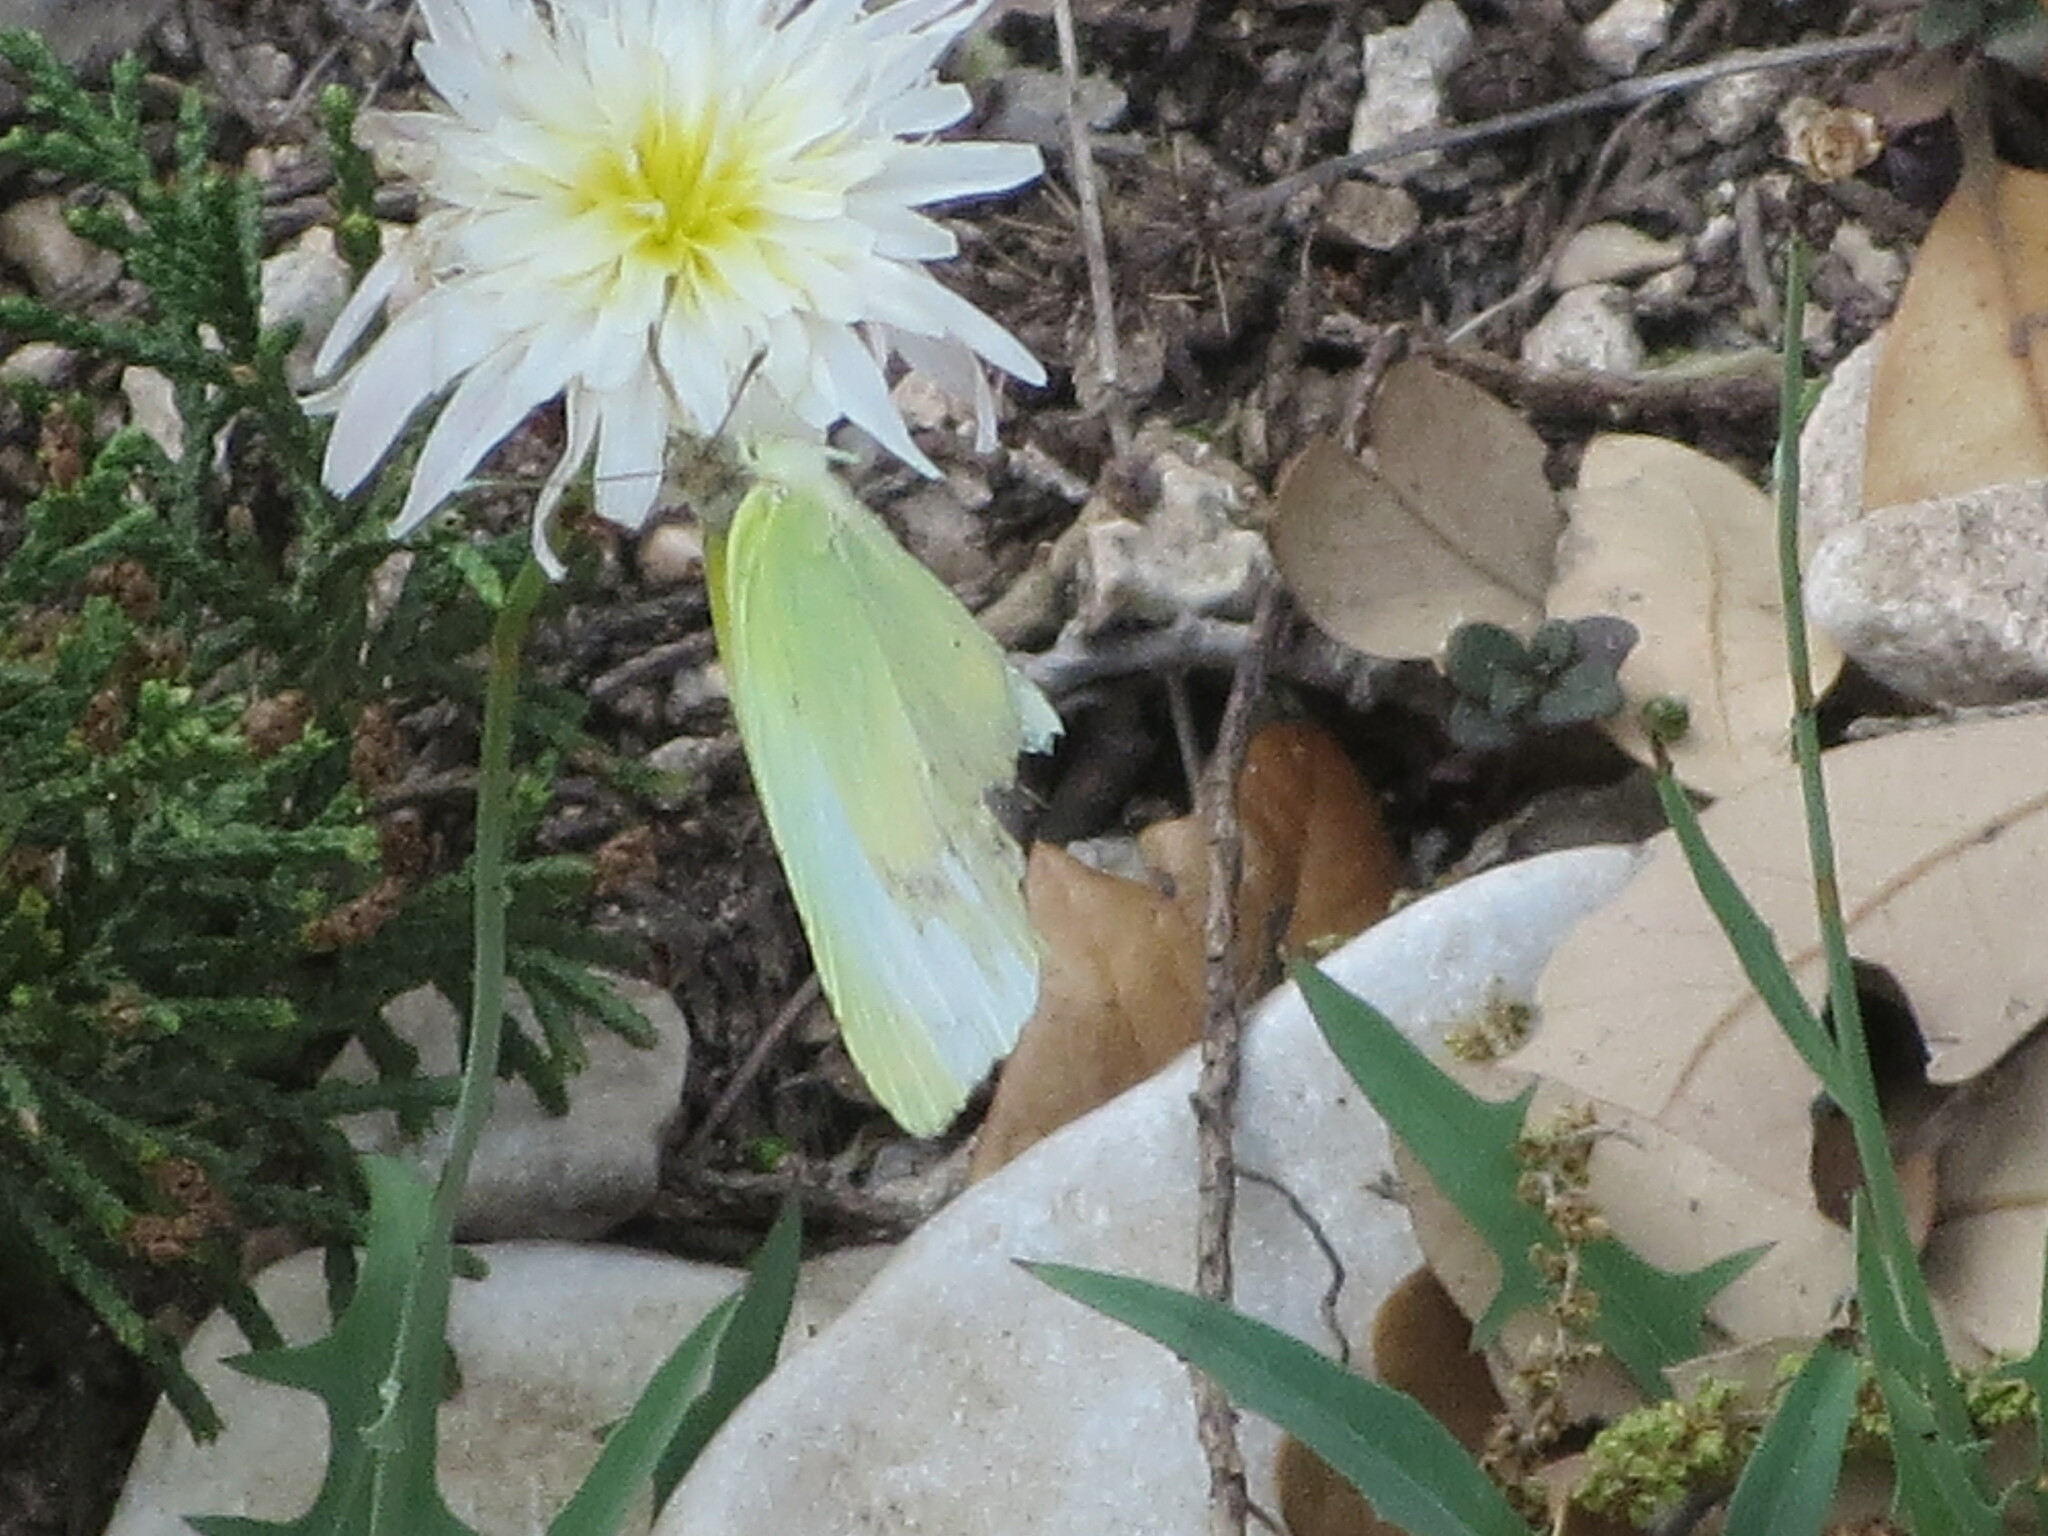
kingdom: Animalia
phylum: Arthropoda
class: Insecta
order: Lepidoptera
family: Pieridae
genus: Kricogonia
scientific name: Kricogonia lyside
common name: Guayacan sulphur,
